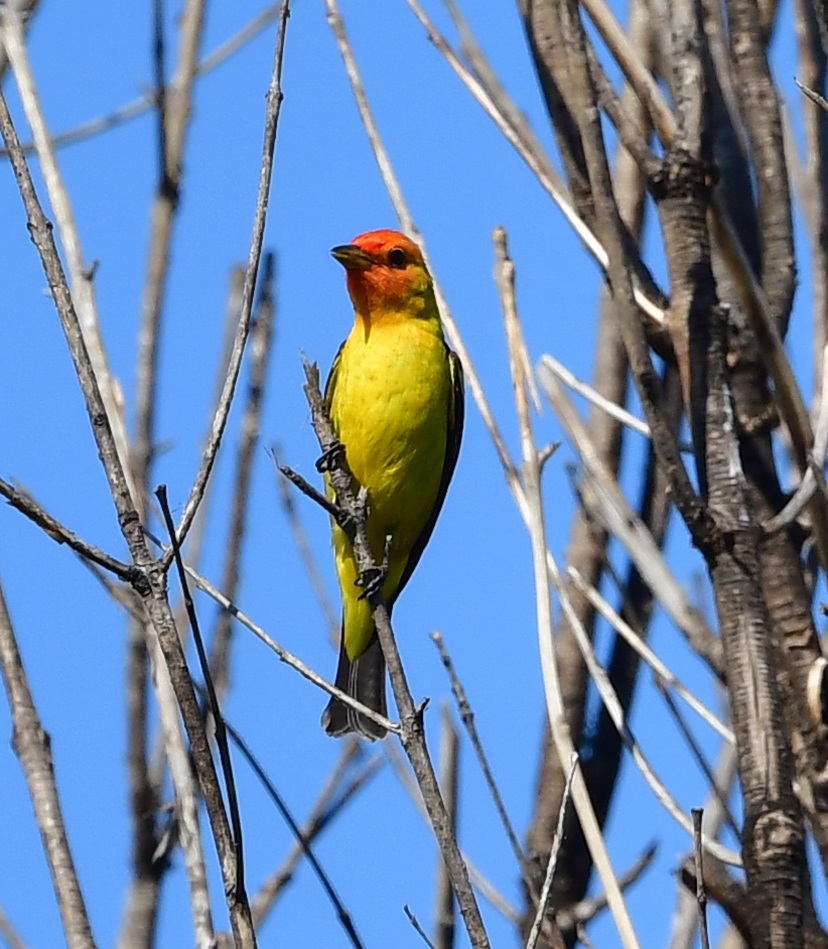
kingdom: Animalia
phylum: Chordata
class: Aves
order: Passeriformes
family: Cardinalidae
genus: Piranga
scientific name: Piranga ludoviciana
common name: Western tanager
